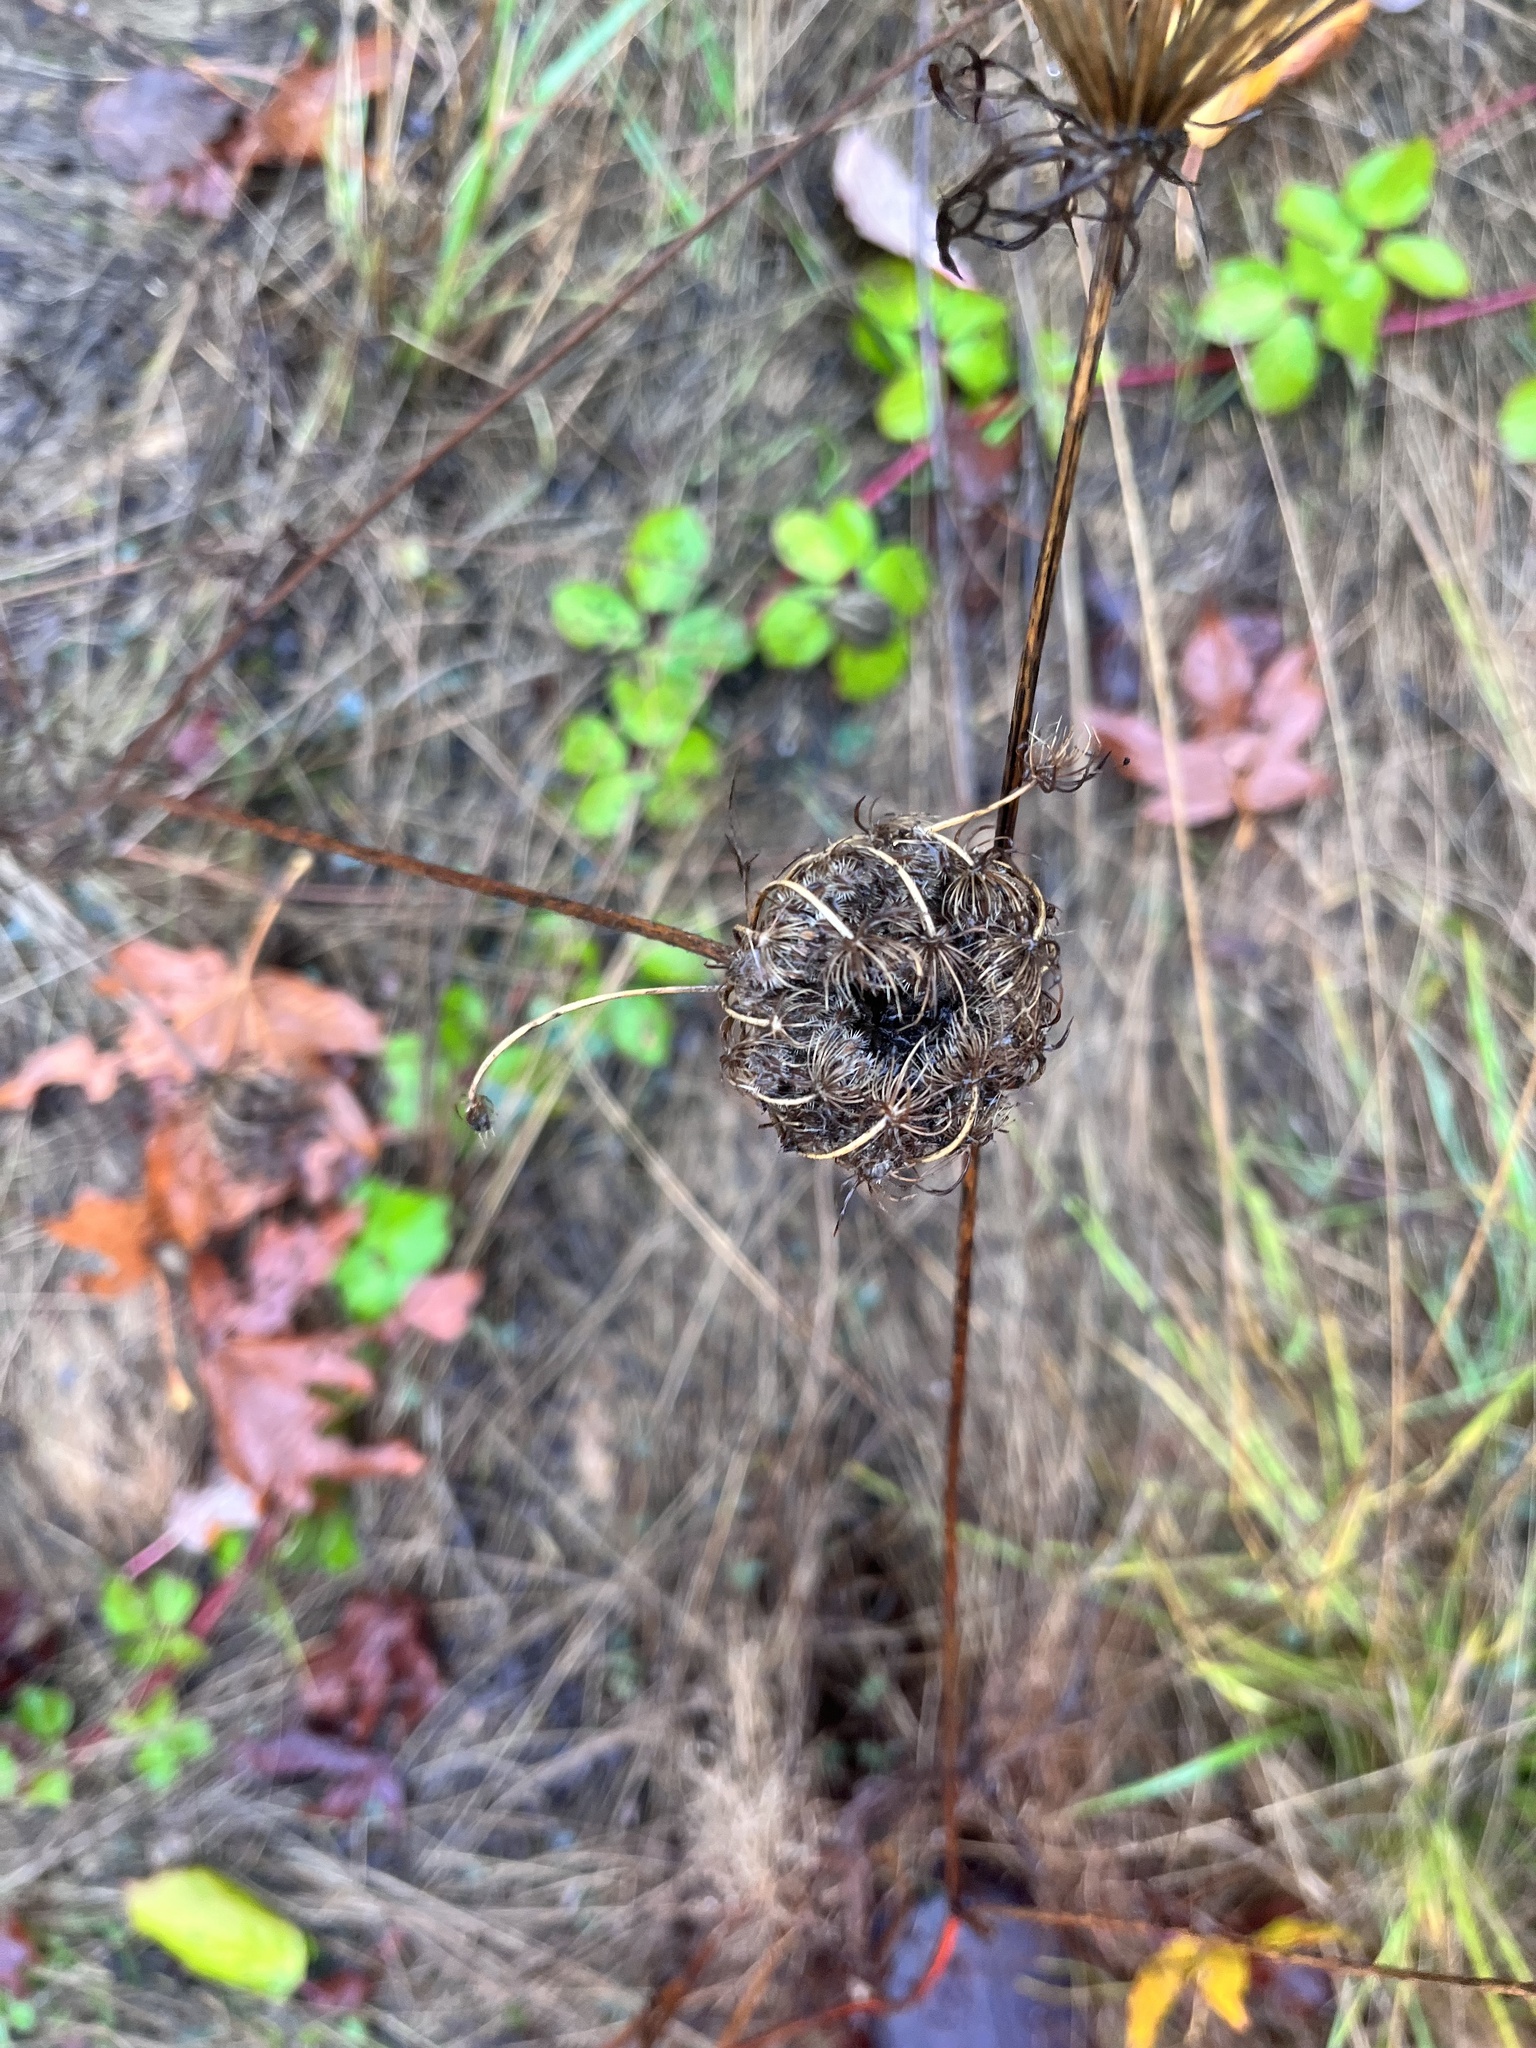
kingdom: Plantae
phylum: Tracheophyta
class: Magnoliopsida
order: Apiales
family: Apiaceae
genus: Daucus
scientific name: Daucus carota
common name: Wild carrot
